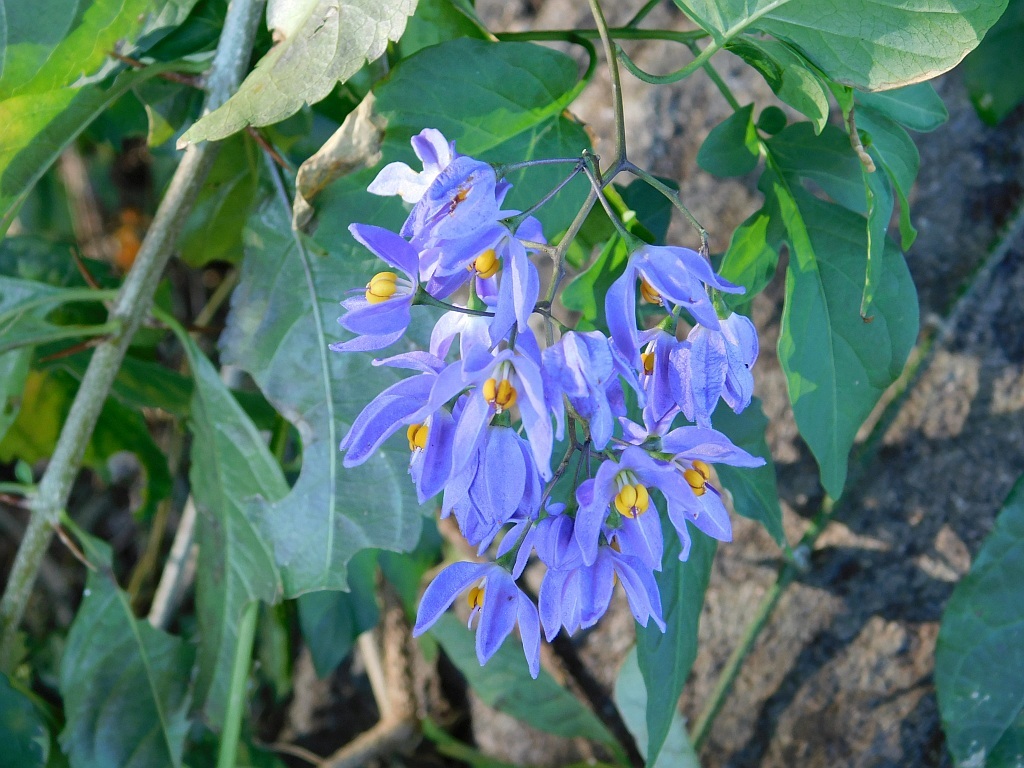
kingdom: Plantae
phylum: Tracheophyta
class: Magnoliopsida
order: Solanales
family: Solanaceae
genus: Solanum
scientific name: Solanum seaforthianum
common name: Brazilian nightshade
